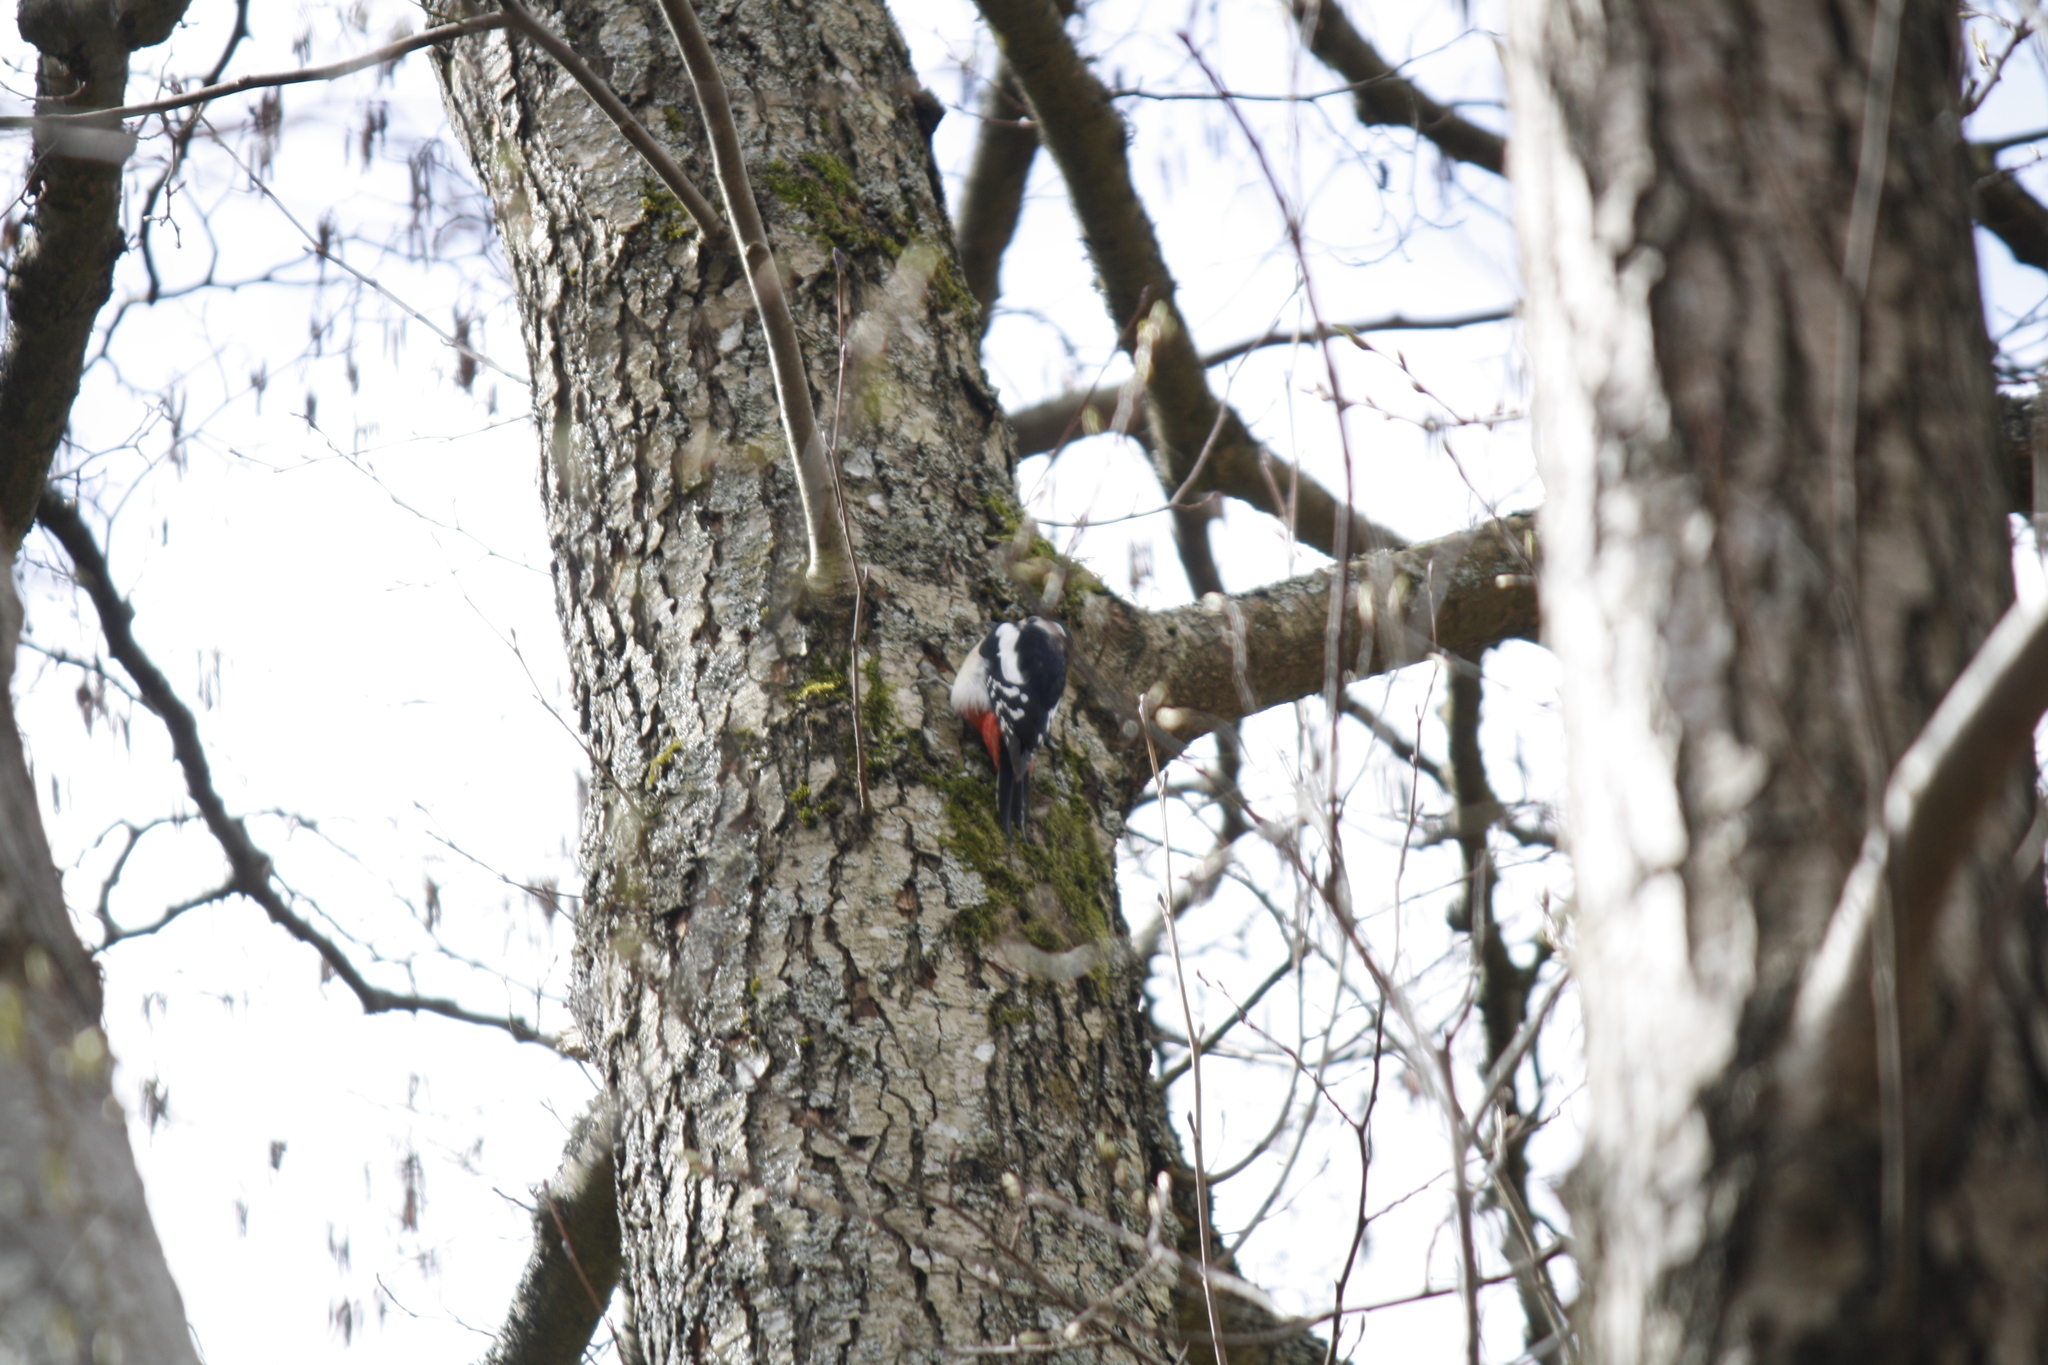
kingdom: Animalia
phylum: Chordata
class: Aves
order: Piciformes
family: Picidae
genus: Dendrocopos
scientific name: Dendrocopos major
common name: Great spotted woodpecker
